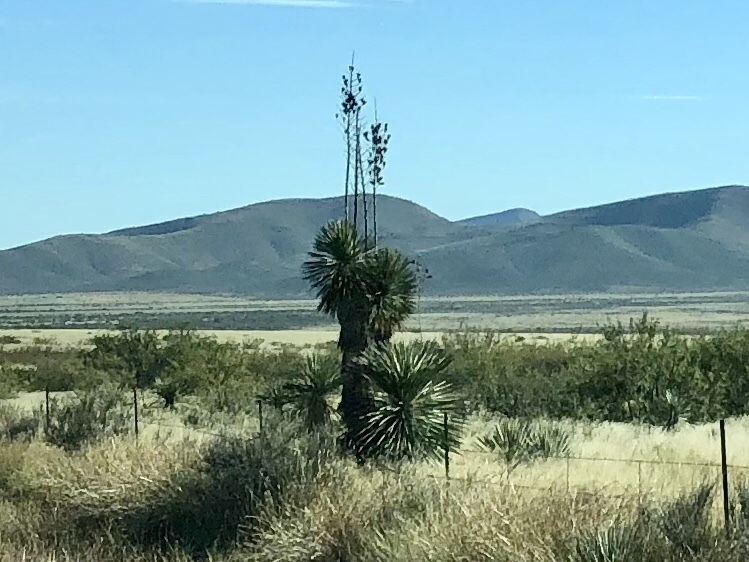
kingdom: Plantae
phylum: Tracheophyta
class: Liliopsida
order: Asparagales
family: Asparagaceae
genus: Yucca
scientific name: Yucca elata
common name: Palmella
